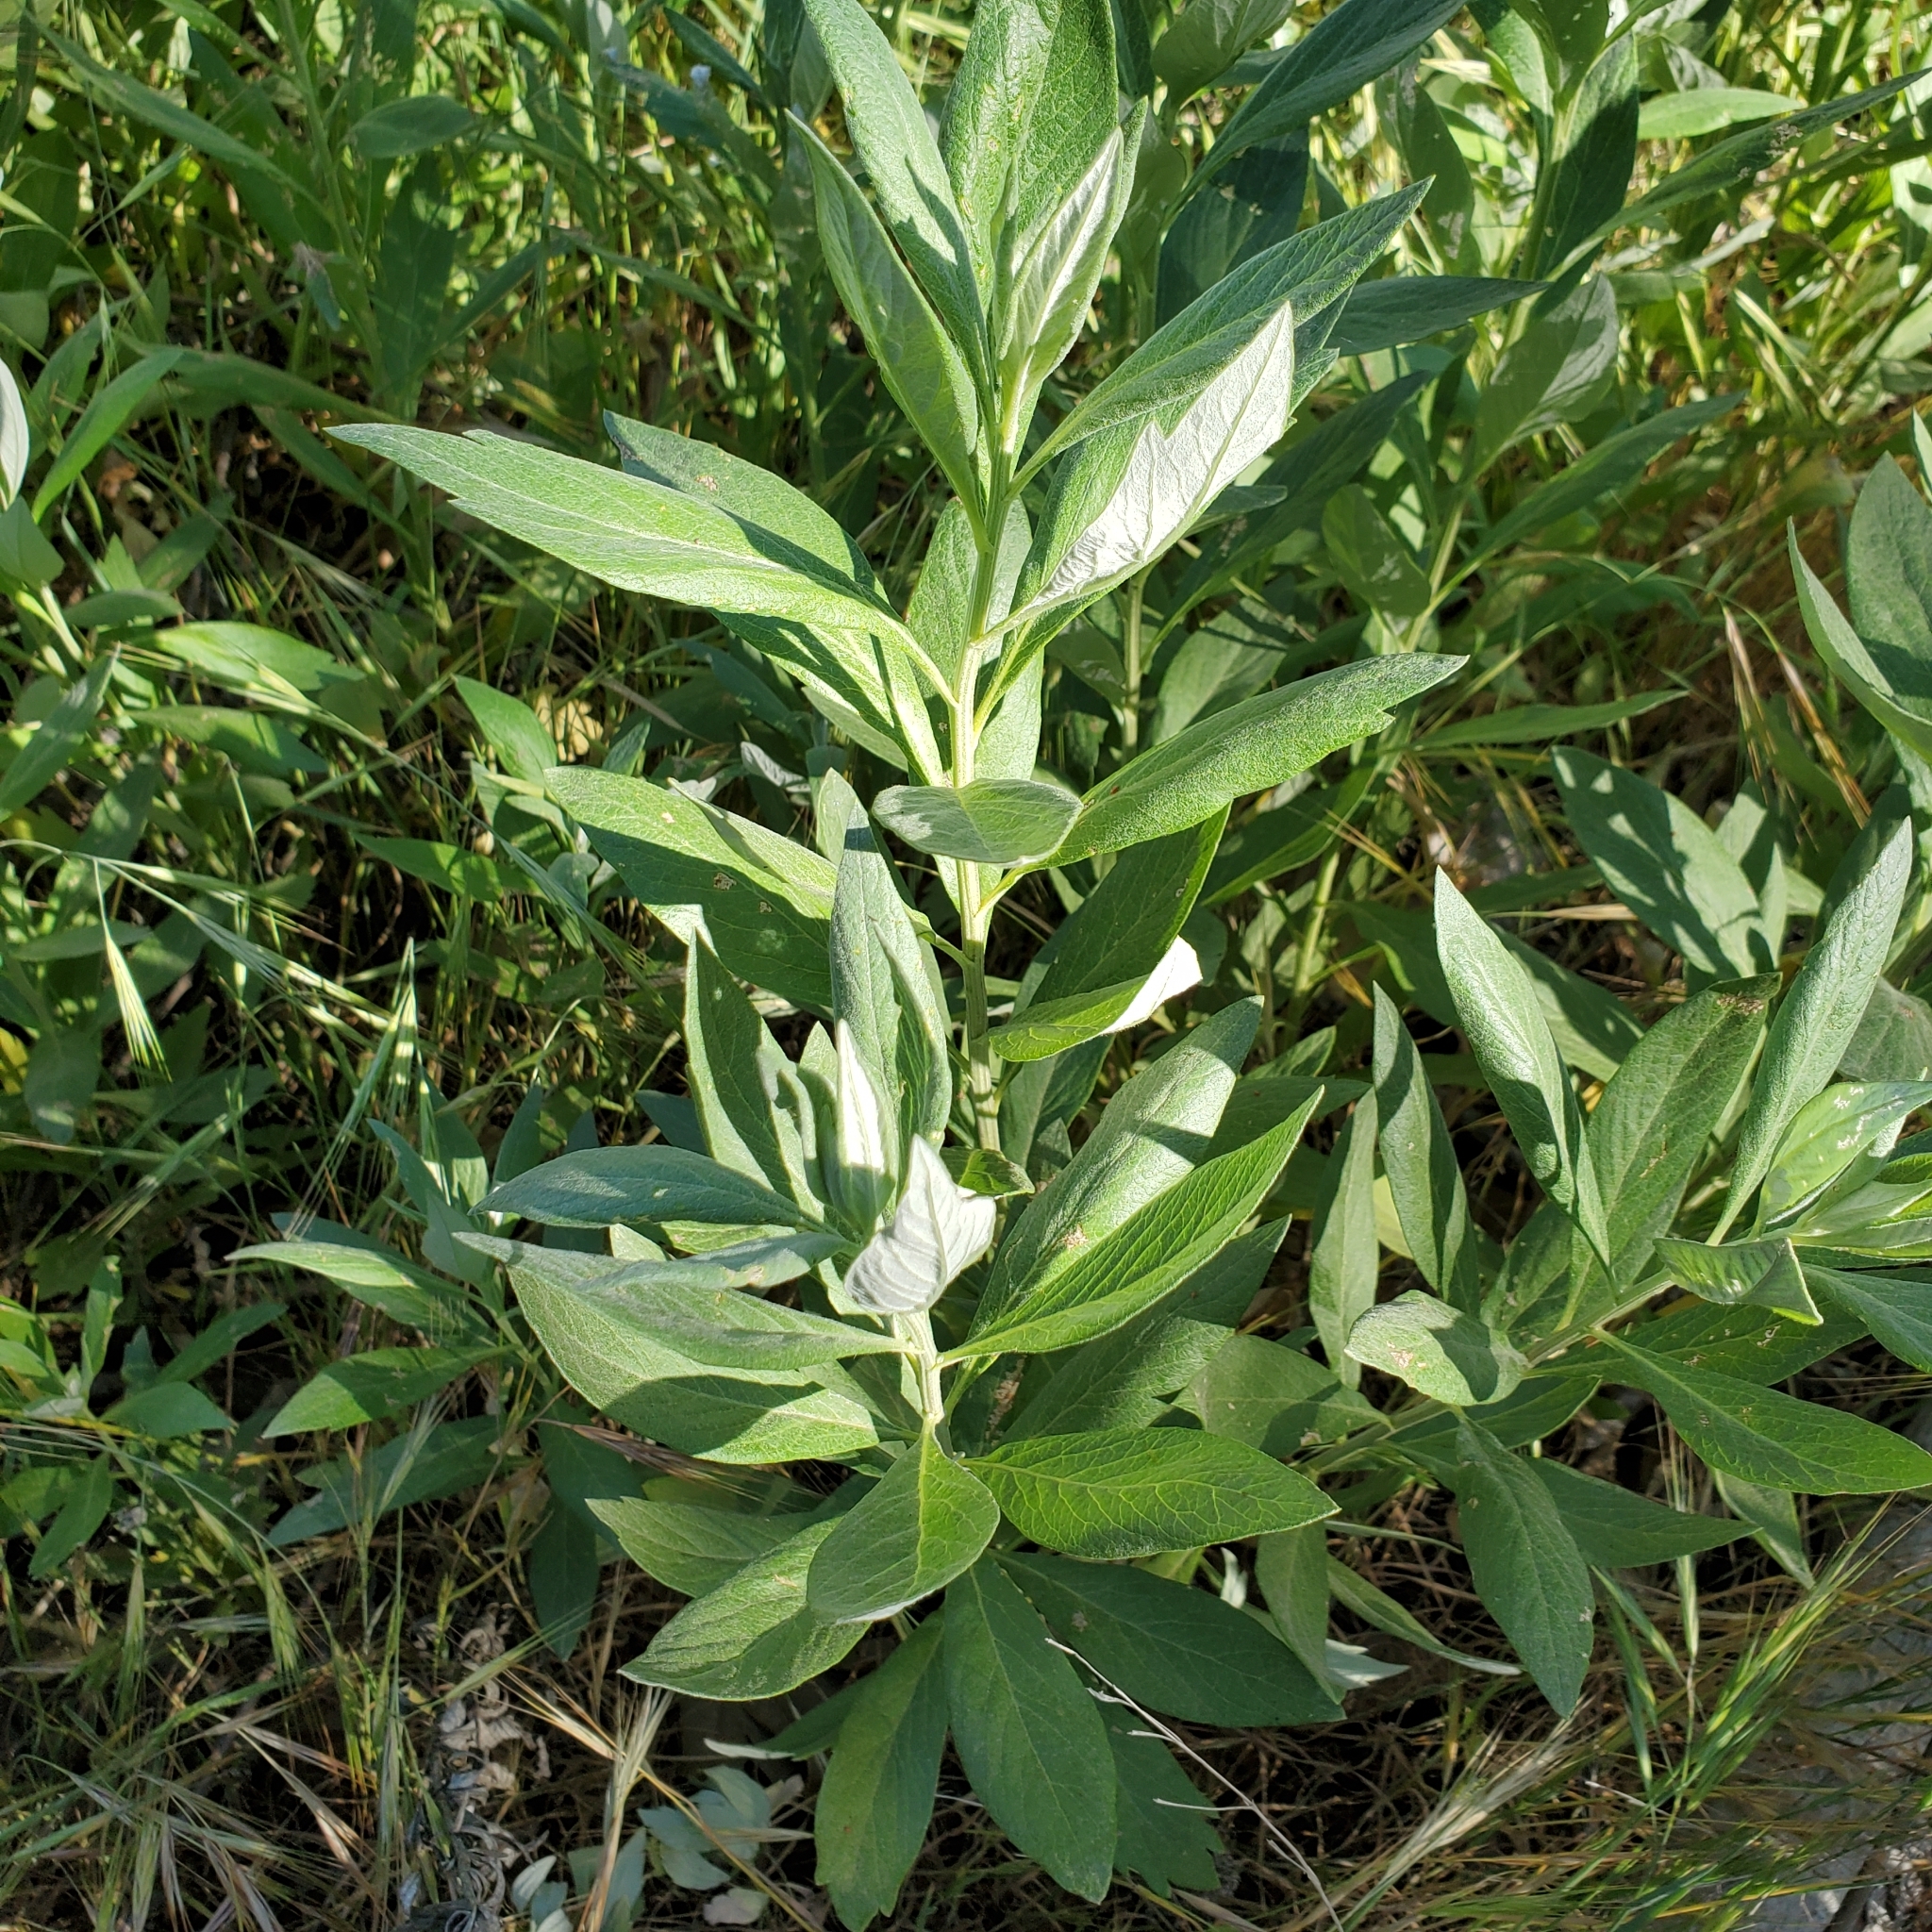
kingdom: Plantae
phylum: Tracheophyta
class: Magnoliopsida
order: Asterales
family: Asteraceae
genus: Artemisia
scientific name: Artemisia douglasiana
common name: Northwest mugwort
